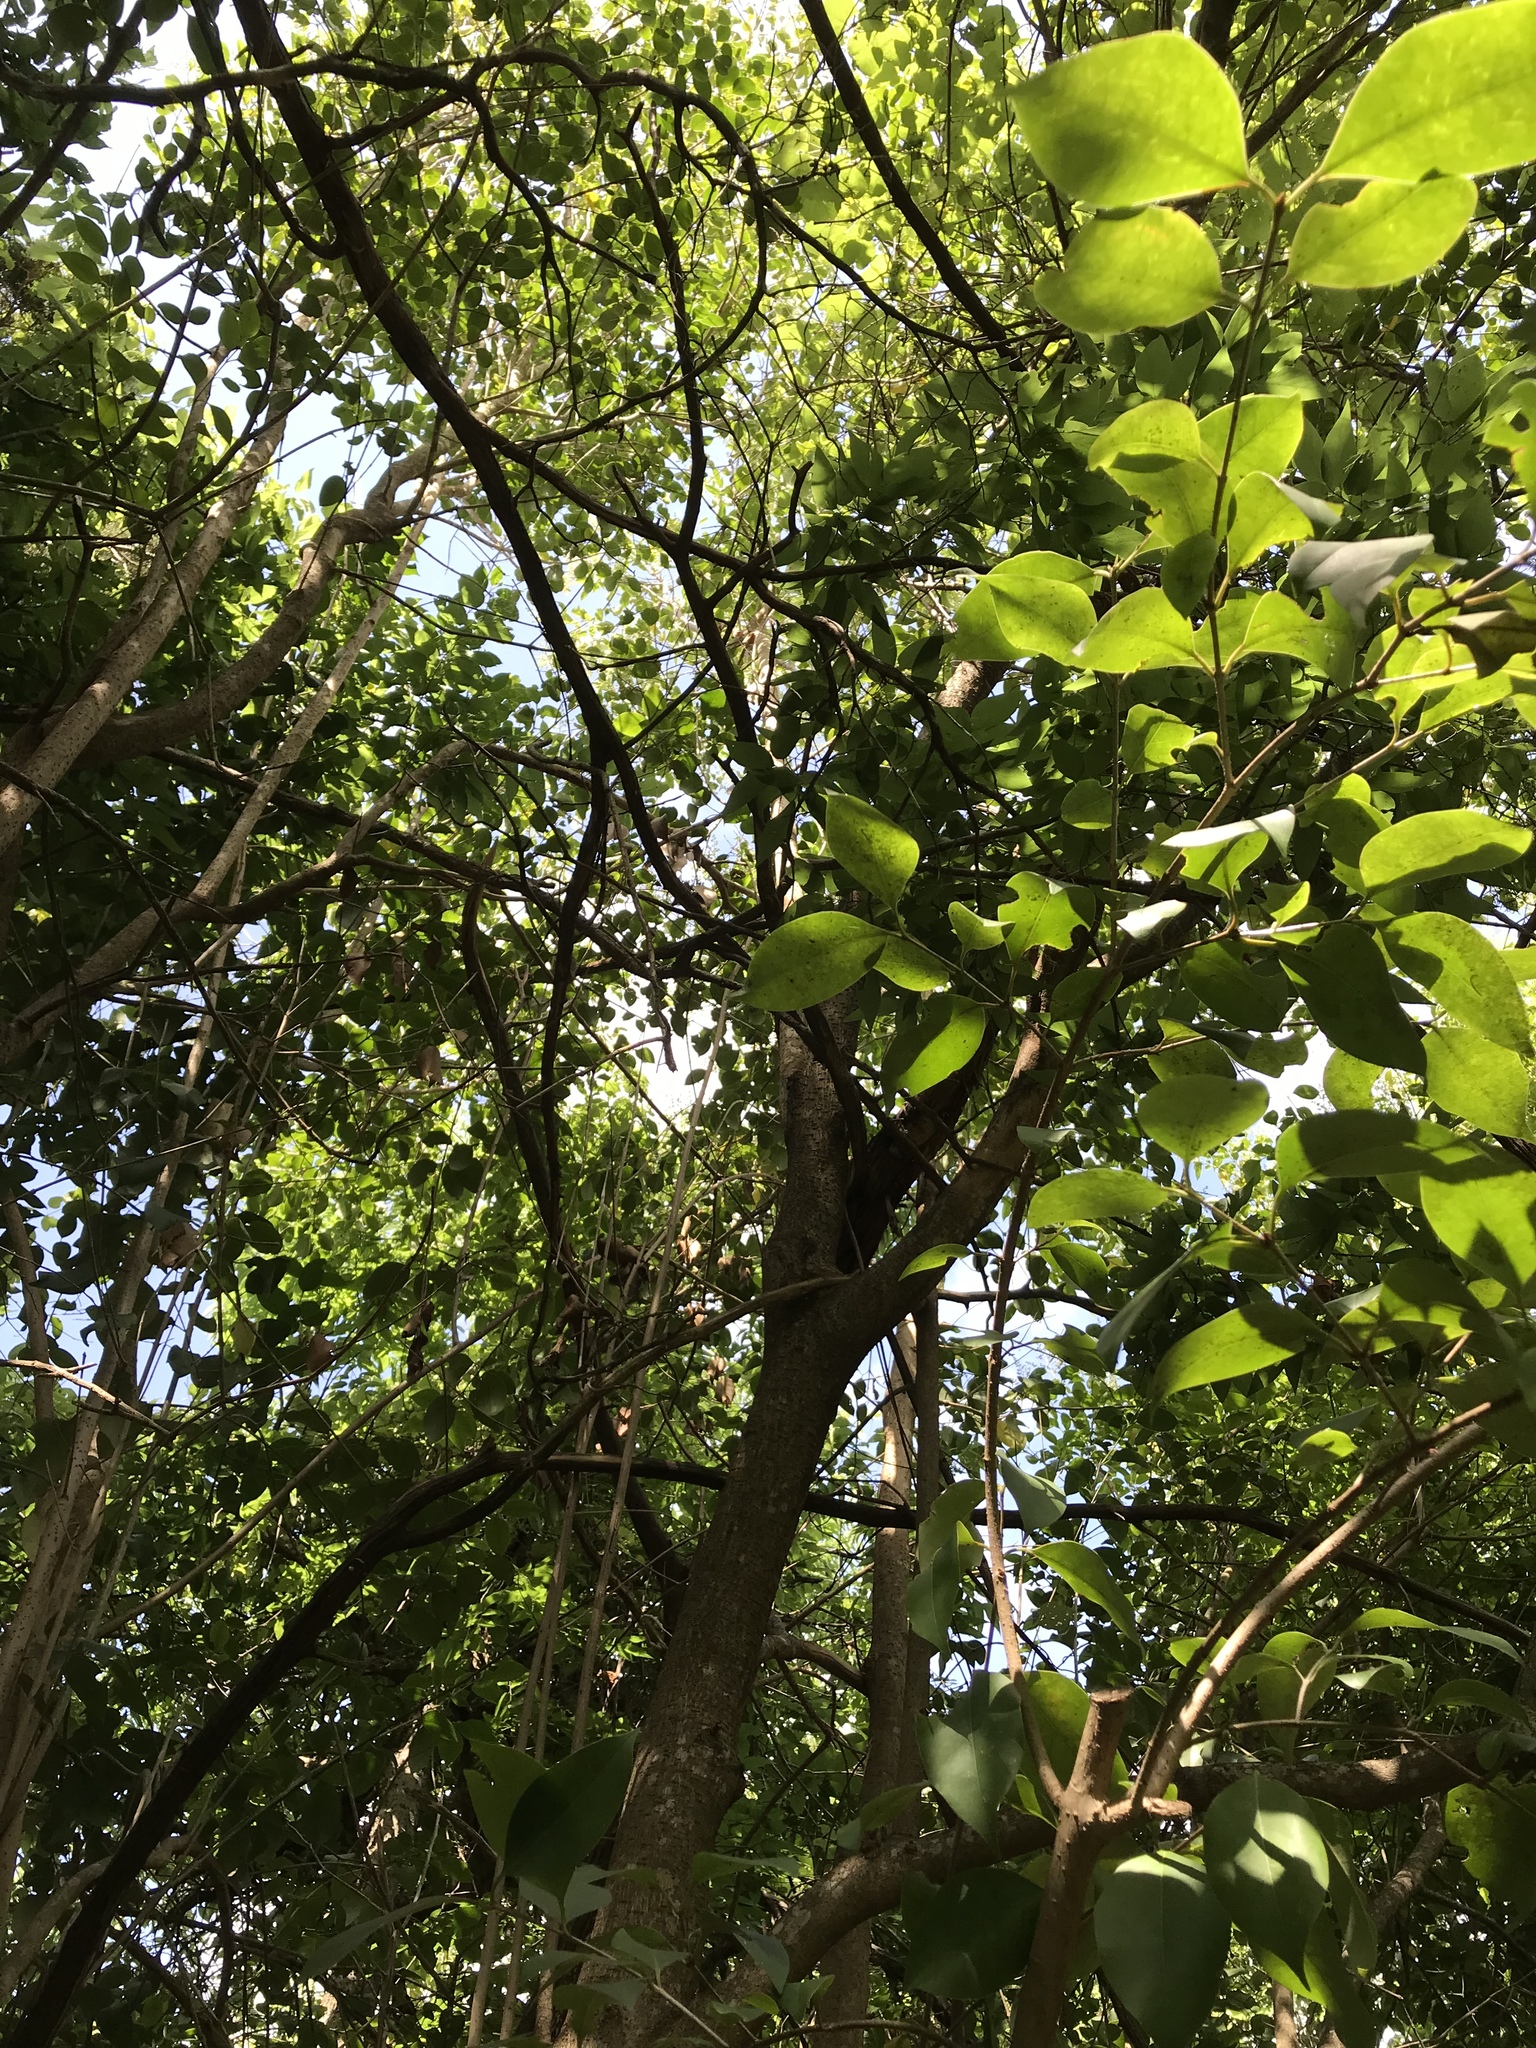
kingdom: Plantae
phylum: Tracheophyta
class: Magnoliopsida
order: Lamiales
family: Oleaceae
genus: Ligustrum
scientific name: Ligustrum lucidum
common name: Glossy privet
